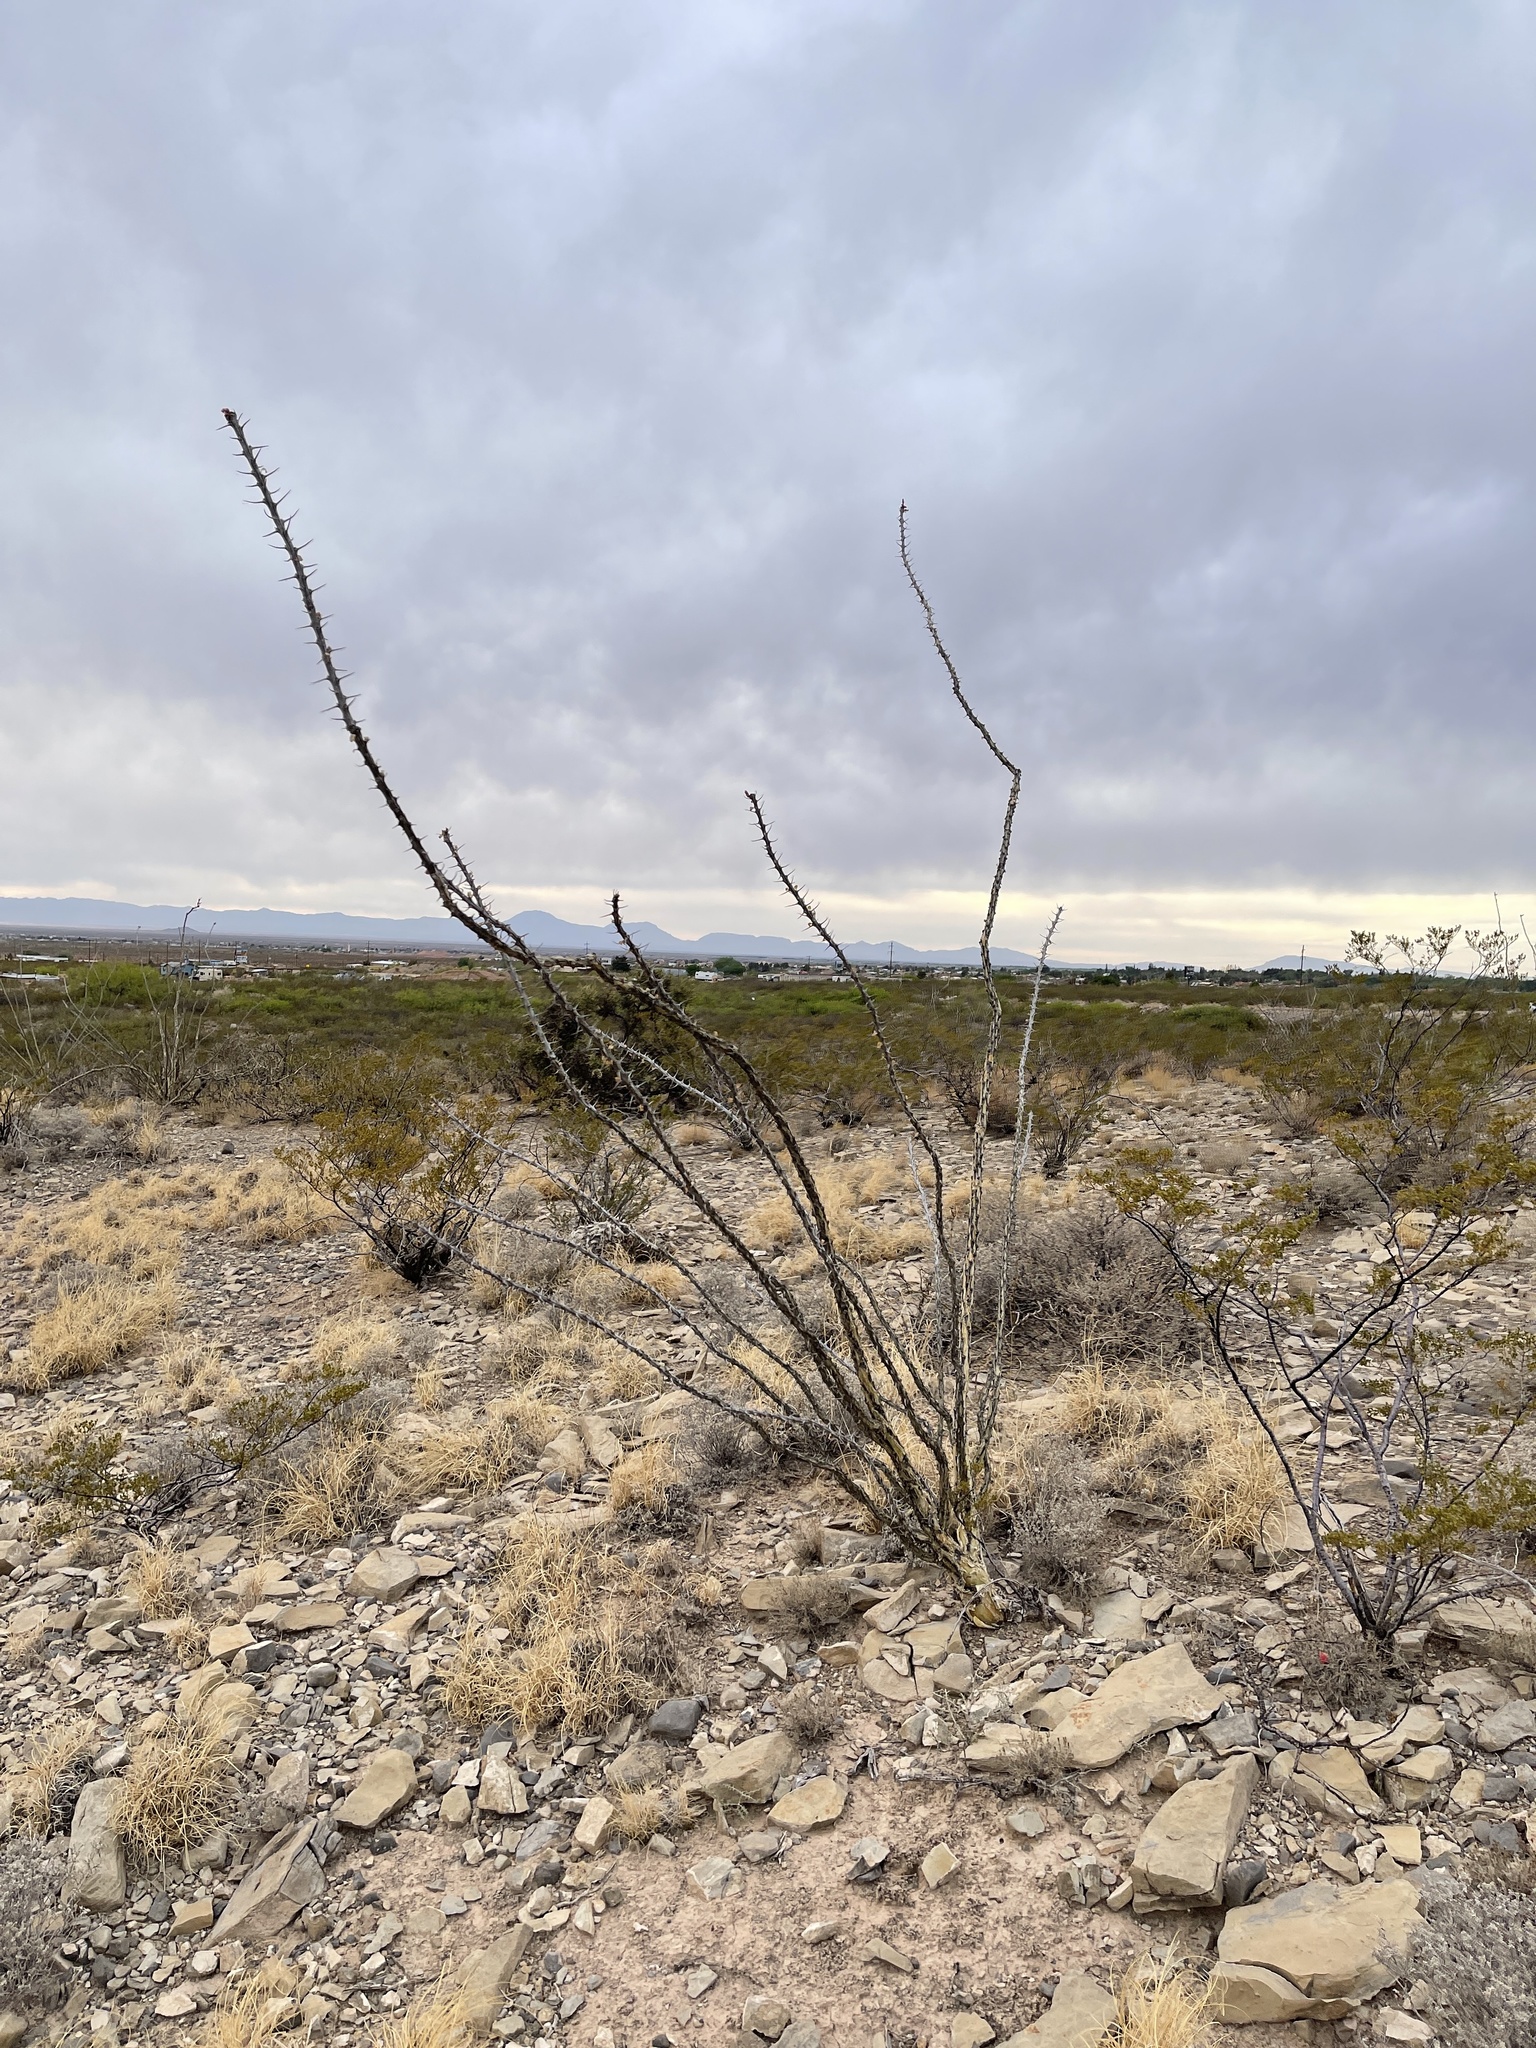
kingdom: Plantae
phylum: Tracheophyta
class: Magnoliopsida
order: Ericales
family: Fouquieriaceae
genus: Fouquieria
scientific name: Fouquieria splendens
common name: Vine-cactus
